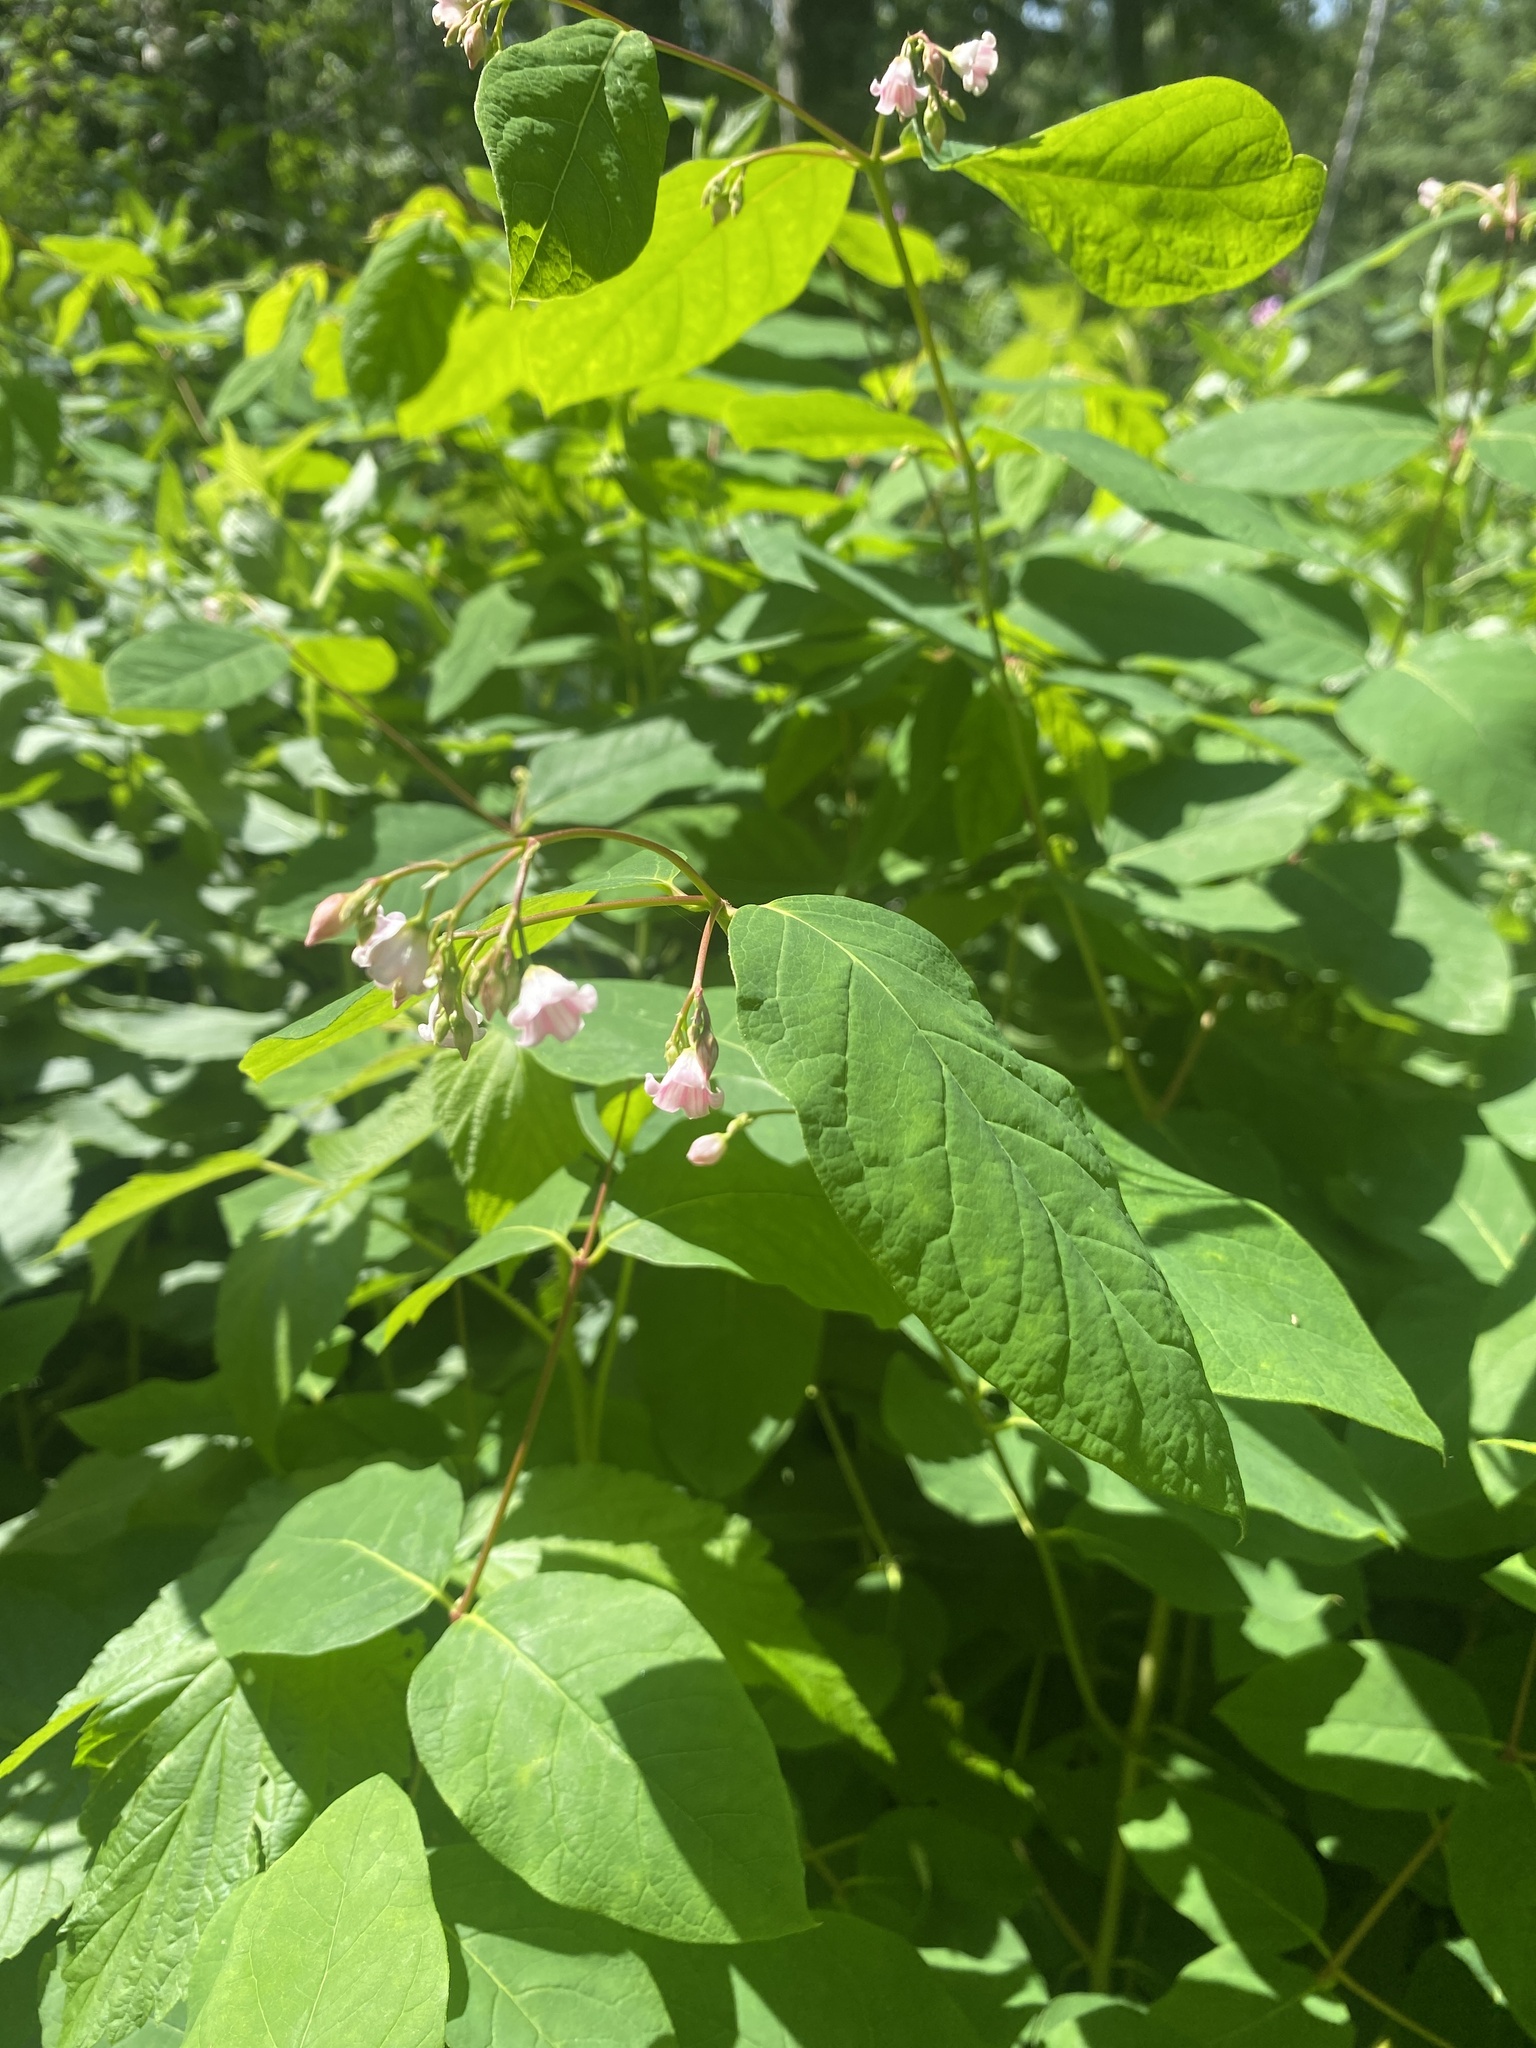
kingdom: Plantae
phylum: Tracheophyta
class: Magnoliopsida
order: Gentianales
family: Apocynaceae
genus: Apocynum
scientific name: Apocynum androsaemifolium
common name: Spreading dogbane
